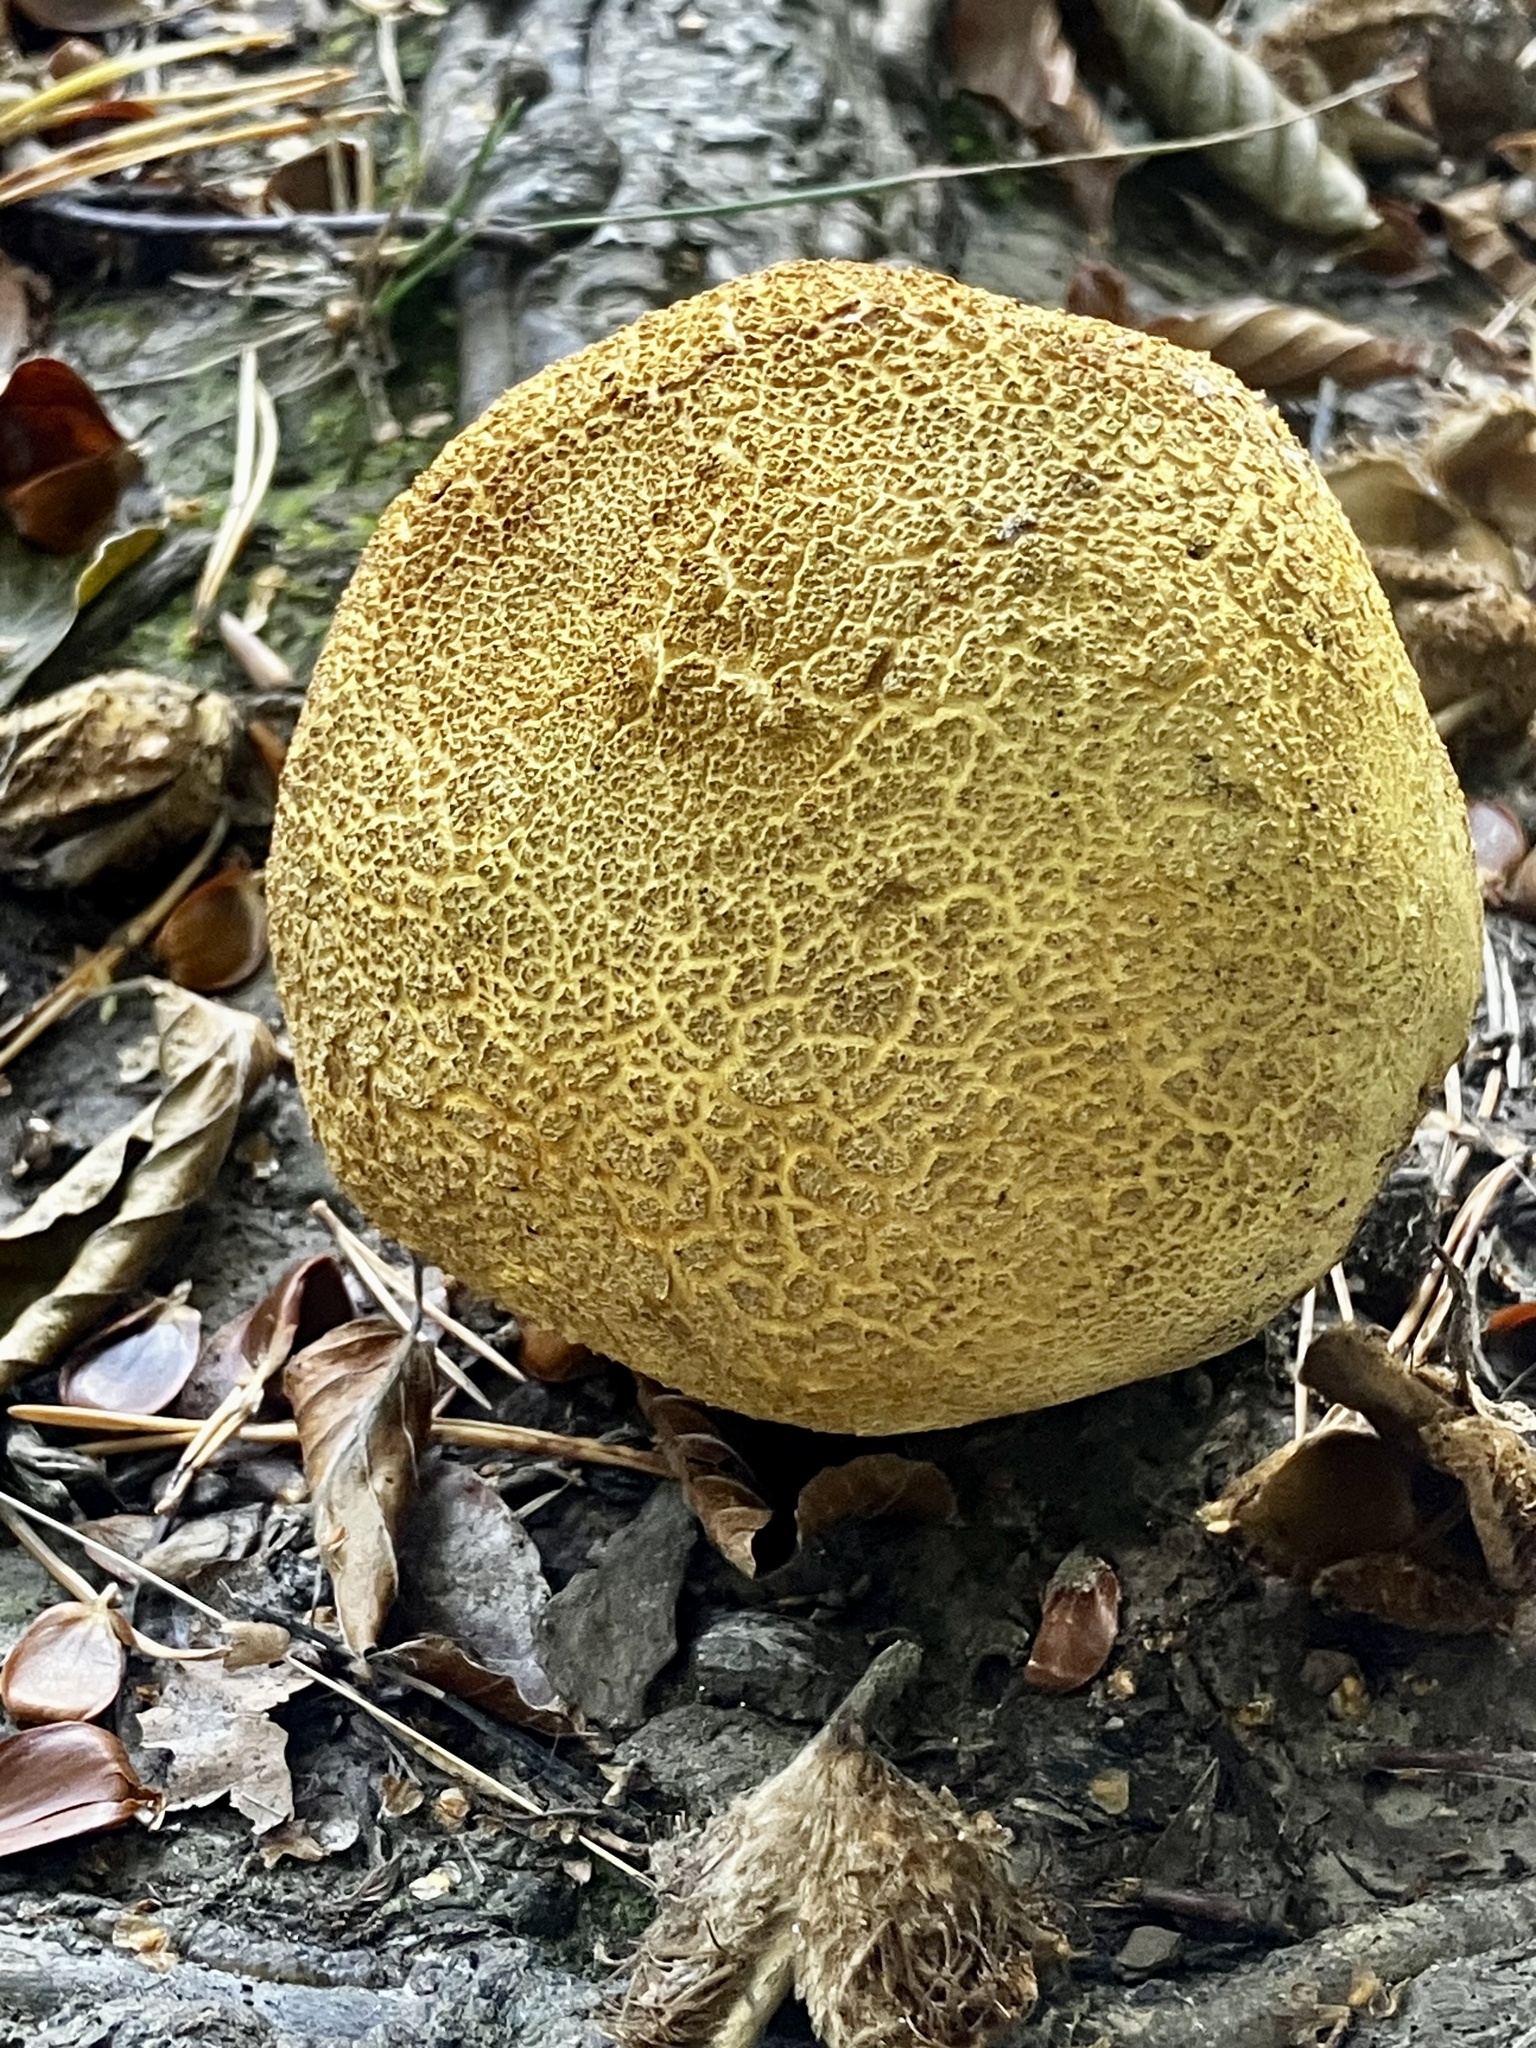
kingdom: Fungi
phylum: Basidiomycota
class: Agaricomycetes
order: Boletales
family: Sclerodermataceae
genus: Scleroderma
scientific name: Scleroderma citrinum
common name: Common earthball
